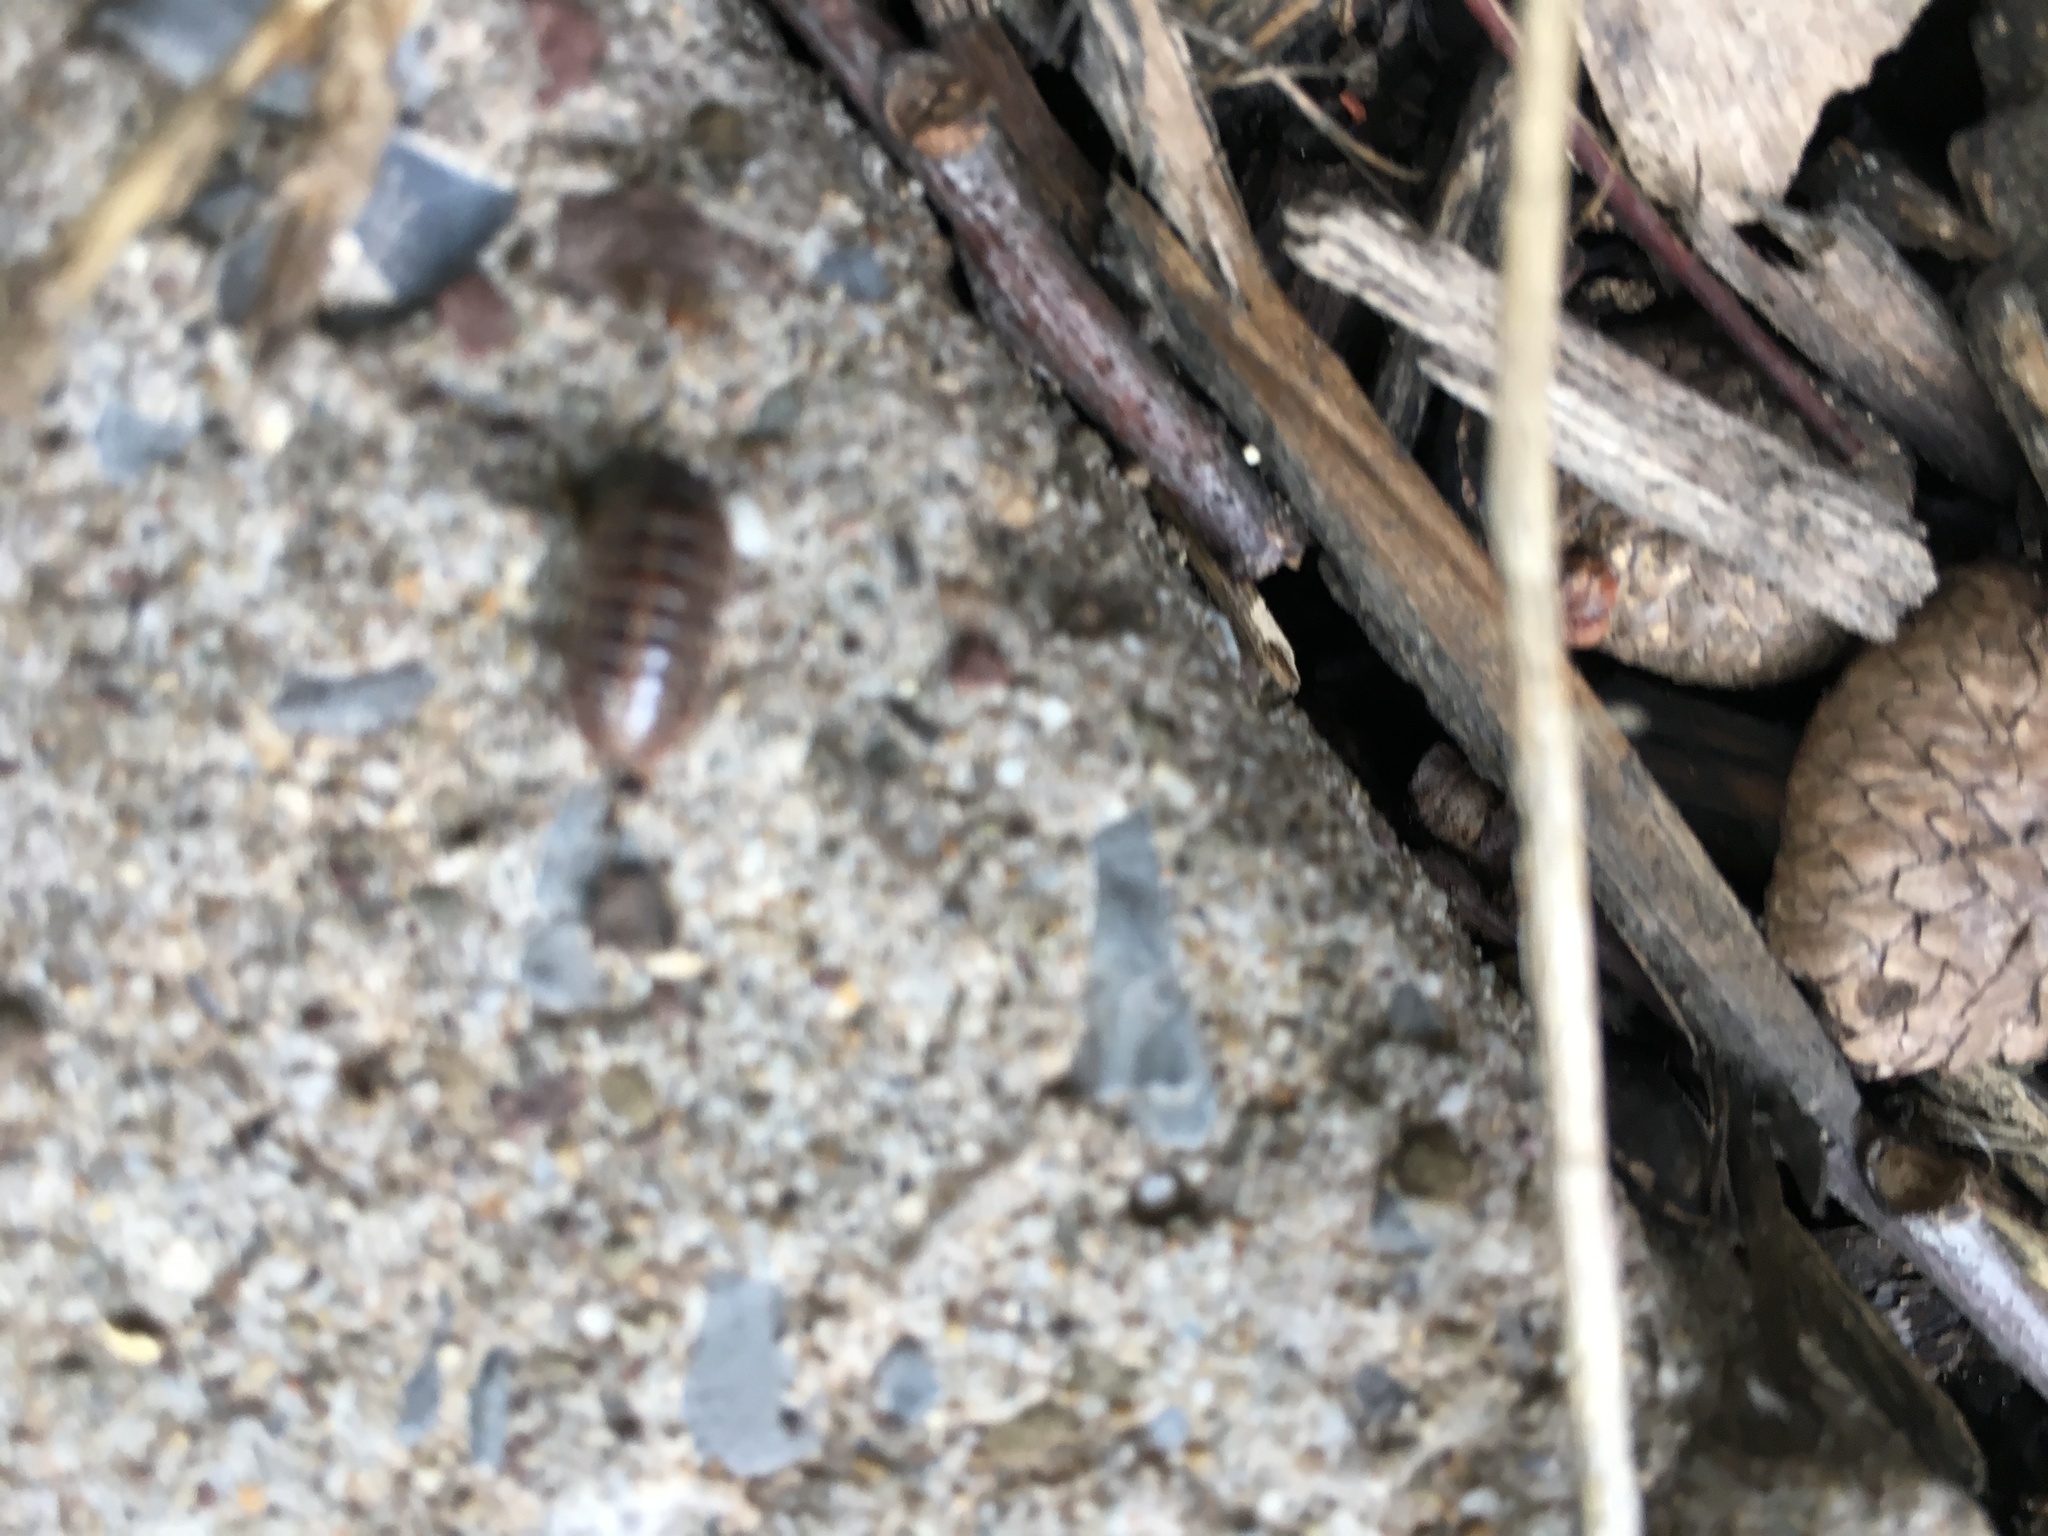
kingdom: Animalia
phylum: Arthropoda
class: Malacostraca
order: Isopoda
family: Armadillidiidae
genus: Armadillidium
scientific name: Armadillidium vulgare
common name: Common pill woodlouse
